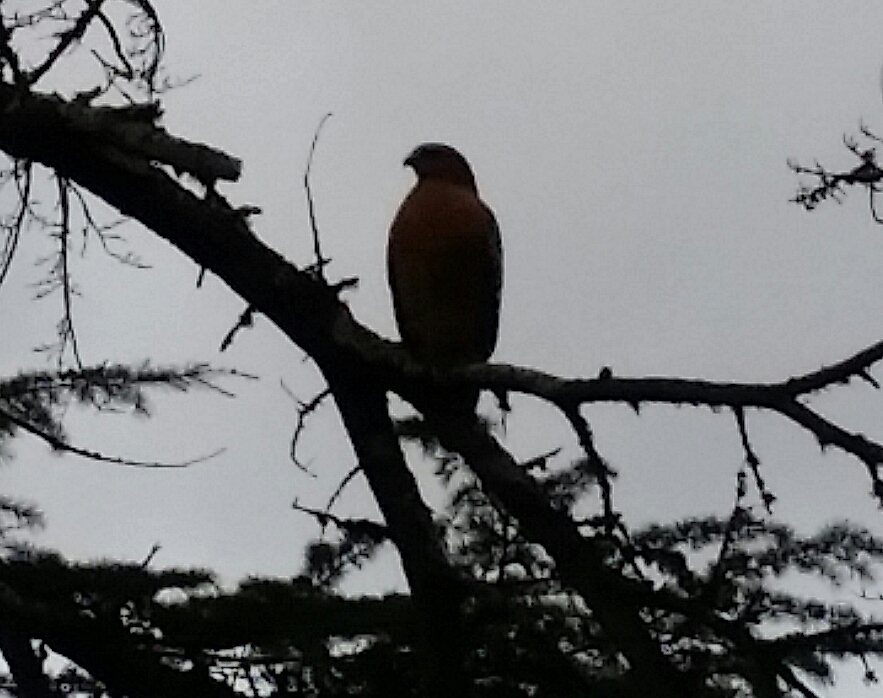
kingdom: Animalia
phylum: Chordata
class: Aves
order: Accipitriformes
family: Accipitridae
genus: Buteo
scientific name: Buteo lineatus
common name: Red-shouldered hawk
